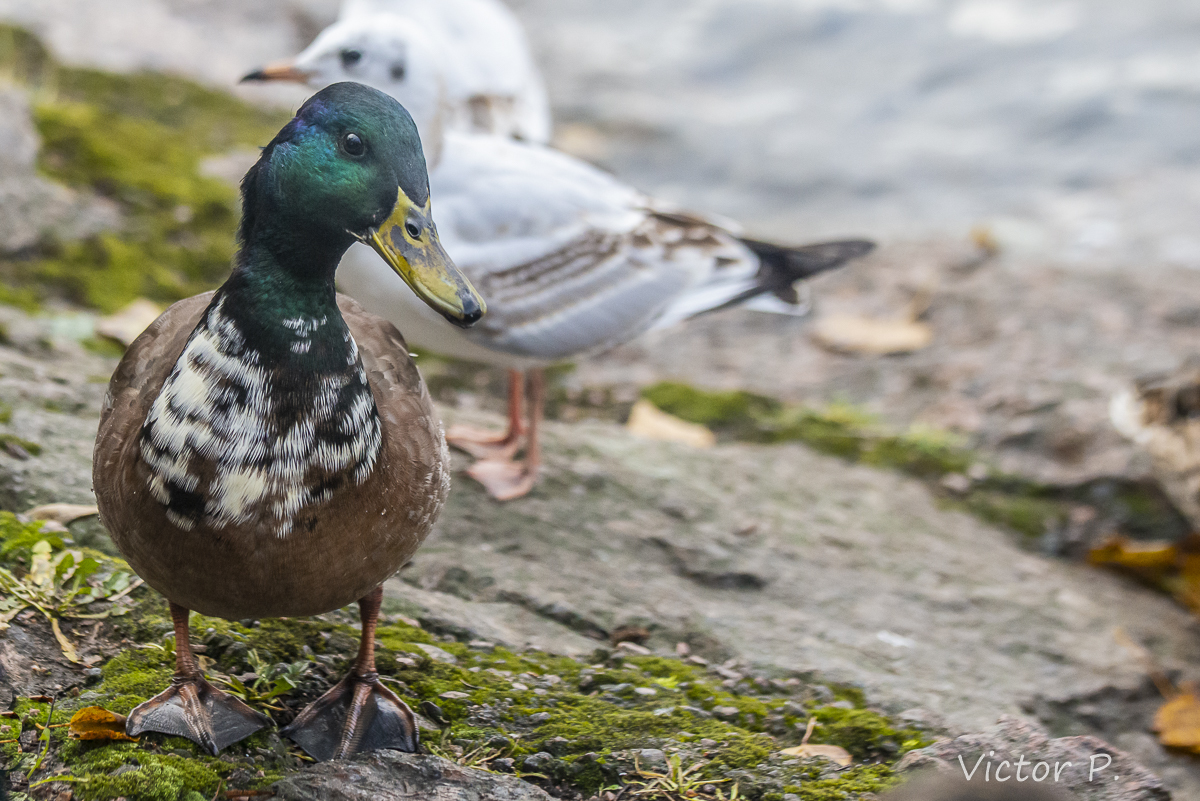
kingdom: Animalia
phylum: Chordata
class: Aves
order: Anseriformes
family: Anatidae
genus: Anas
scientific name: Anas platyrhynchos
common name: Mallard
